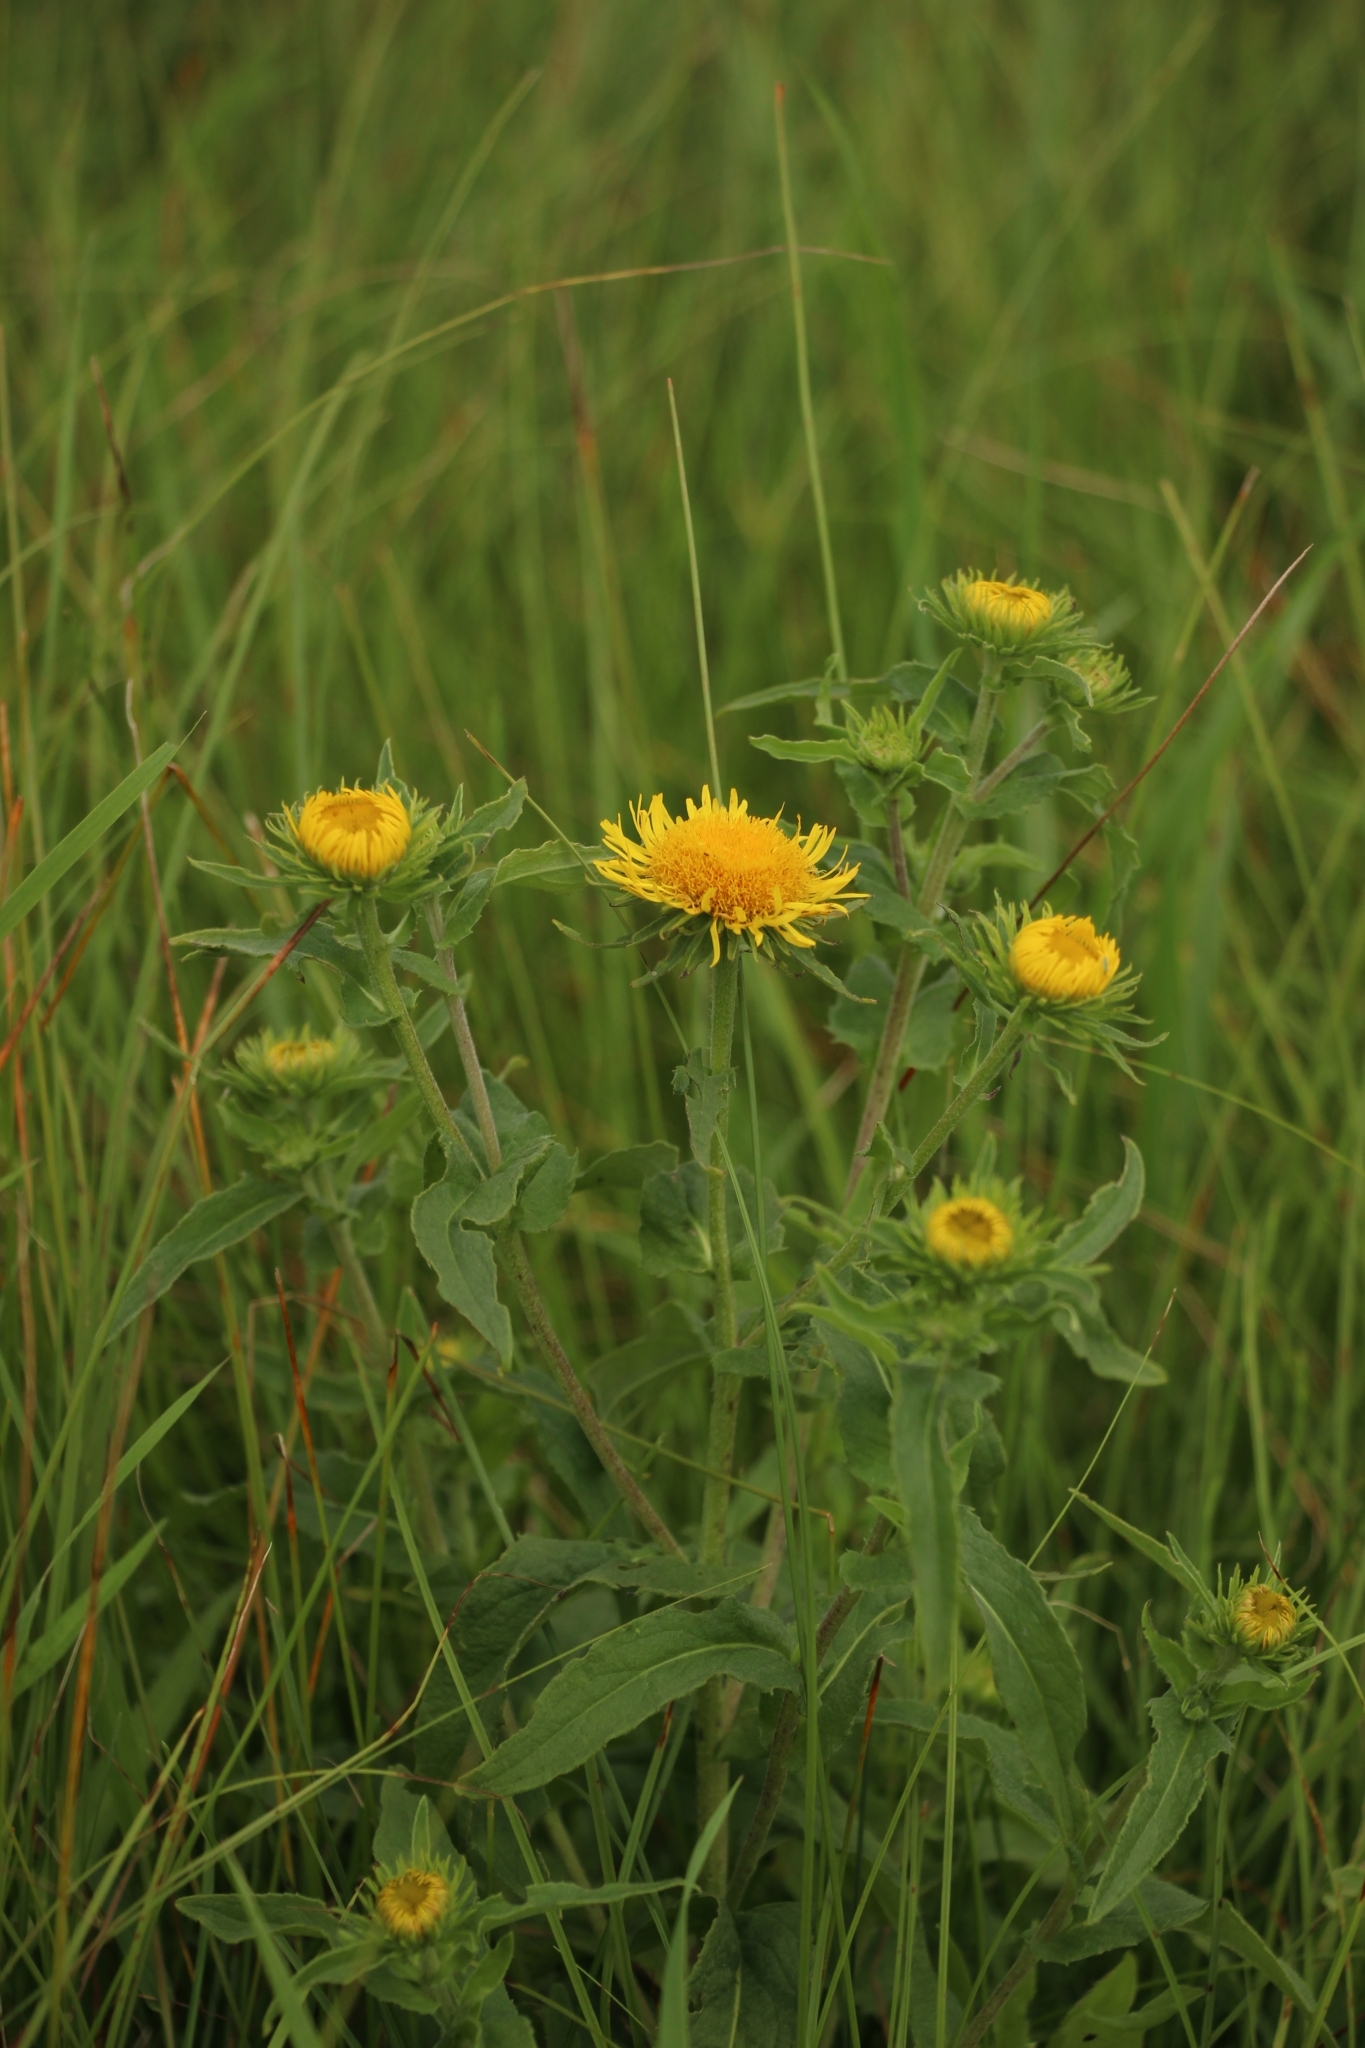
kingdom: Plantae
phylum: Tracheophyta
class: Magnoliopsida
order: Asterales
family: Asteraceae
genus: Pentanema
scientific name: Pentanema britannicum
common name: British elecampane
